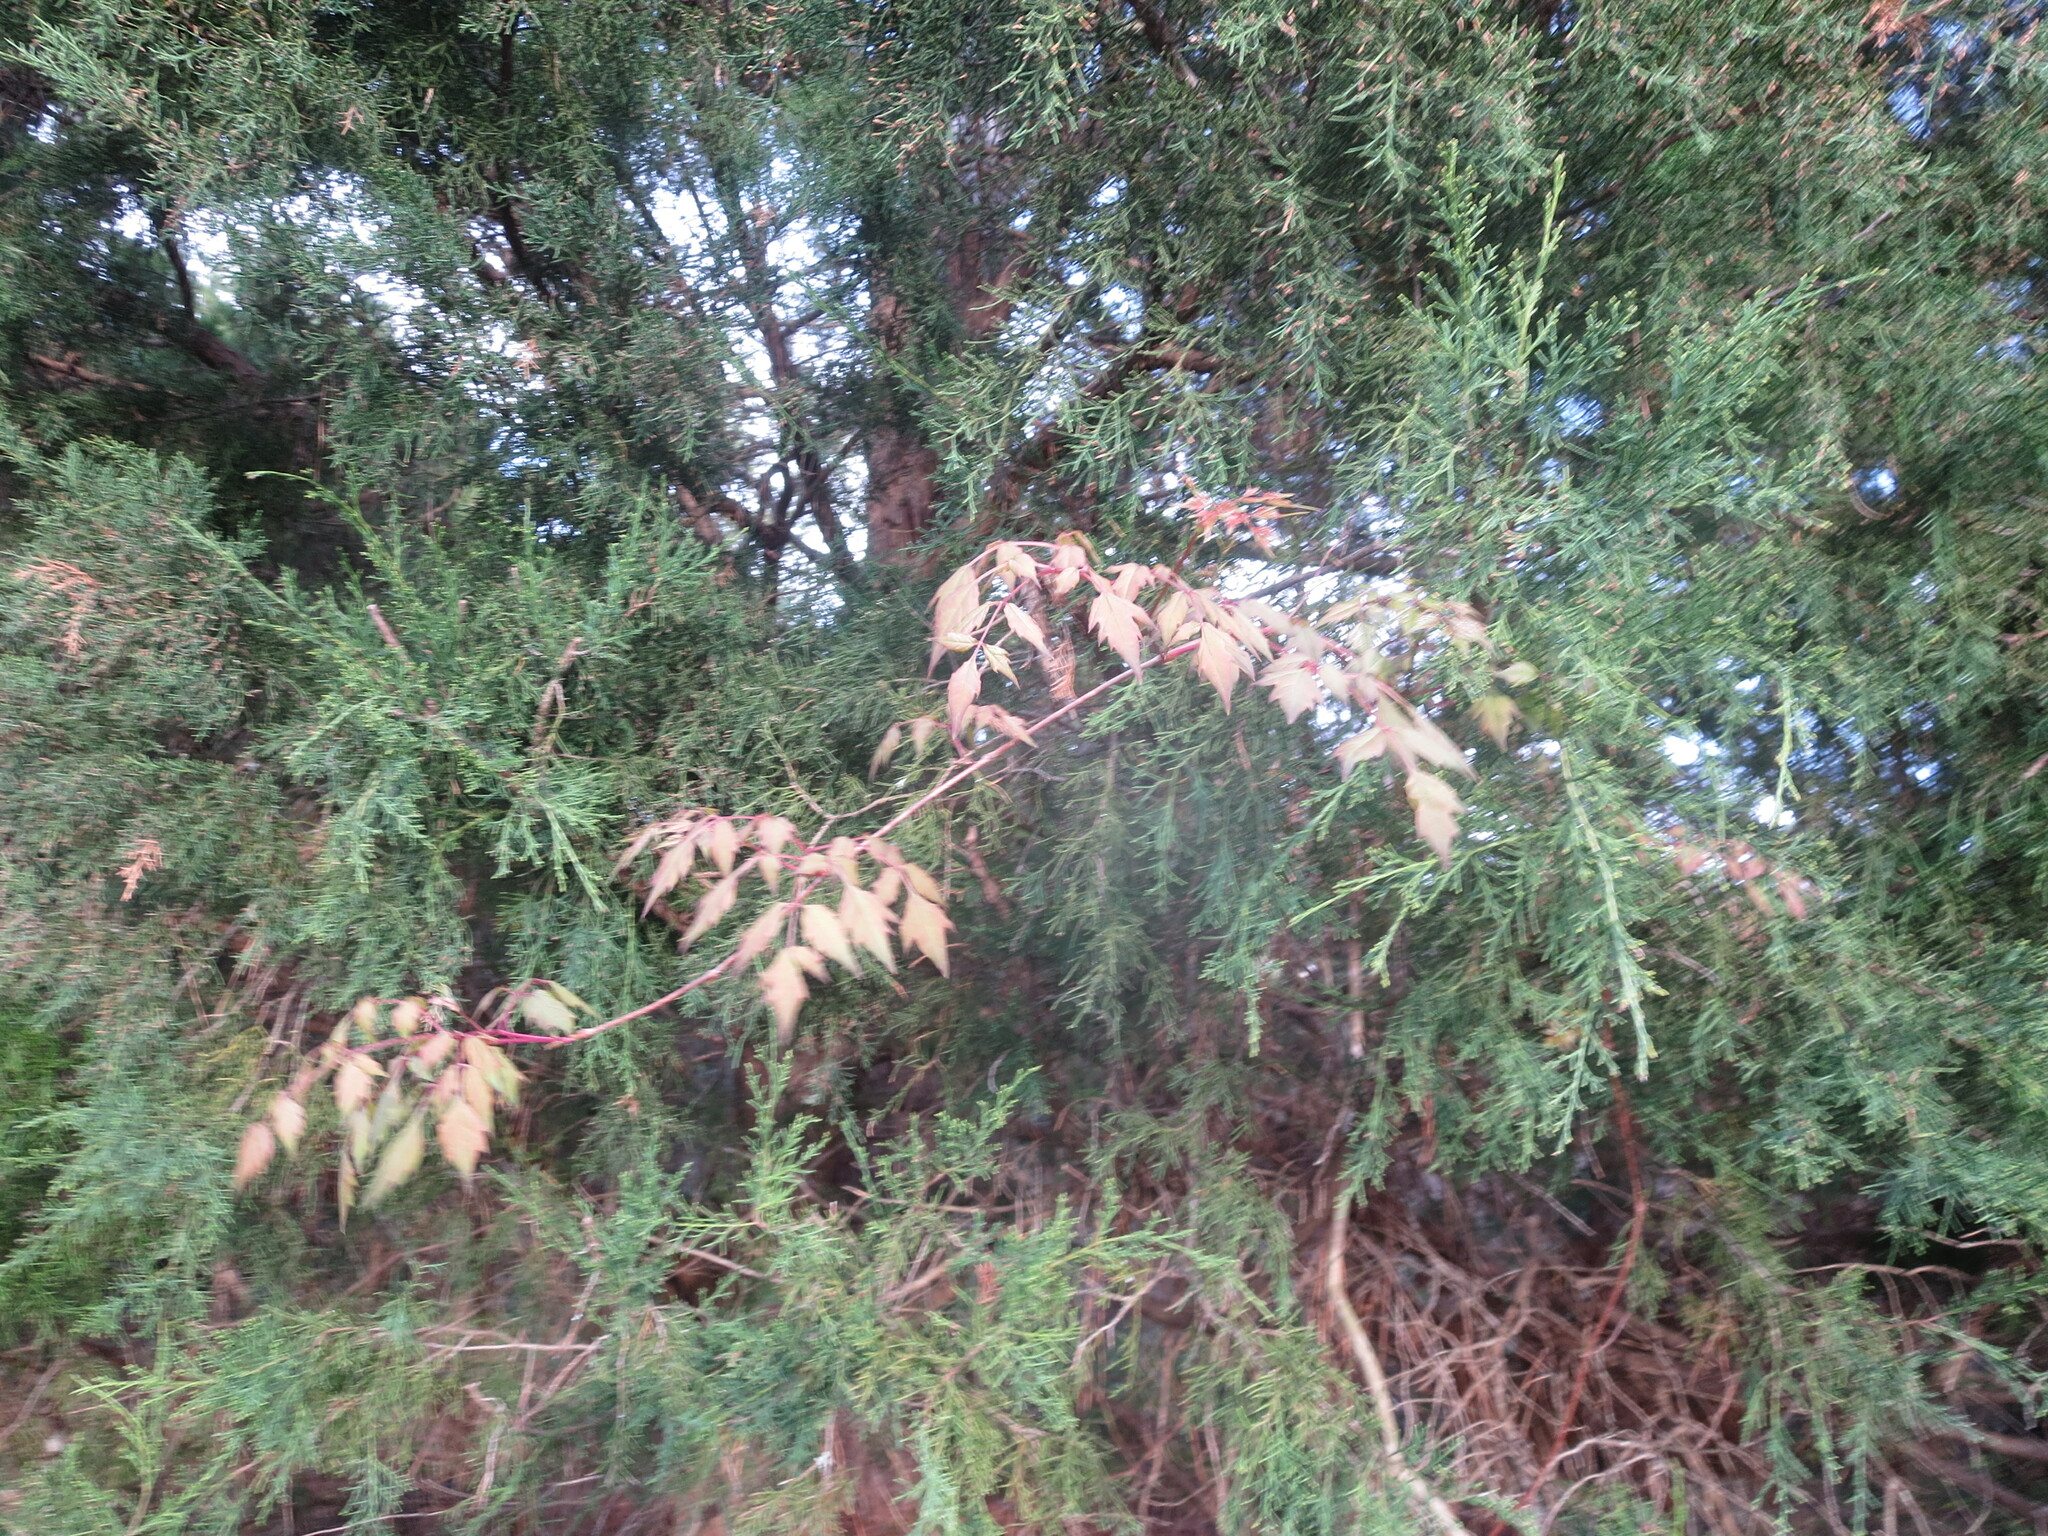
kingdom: Plantae
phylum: Tracheophyta
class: Magnoliopsida
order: Vitales
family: Vitaceae
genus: Nekemias
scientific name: Nekemias arborea
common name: Peppervine
